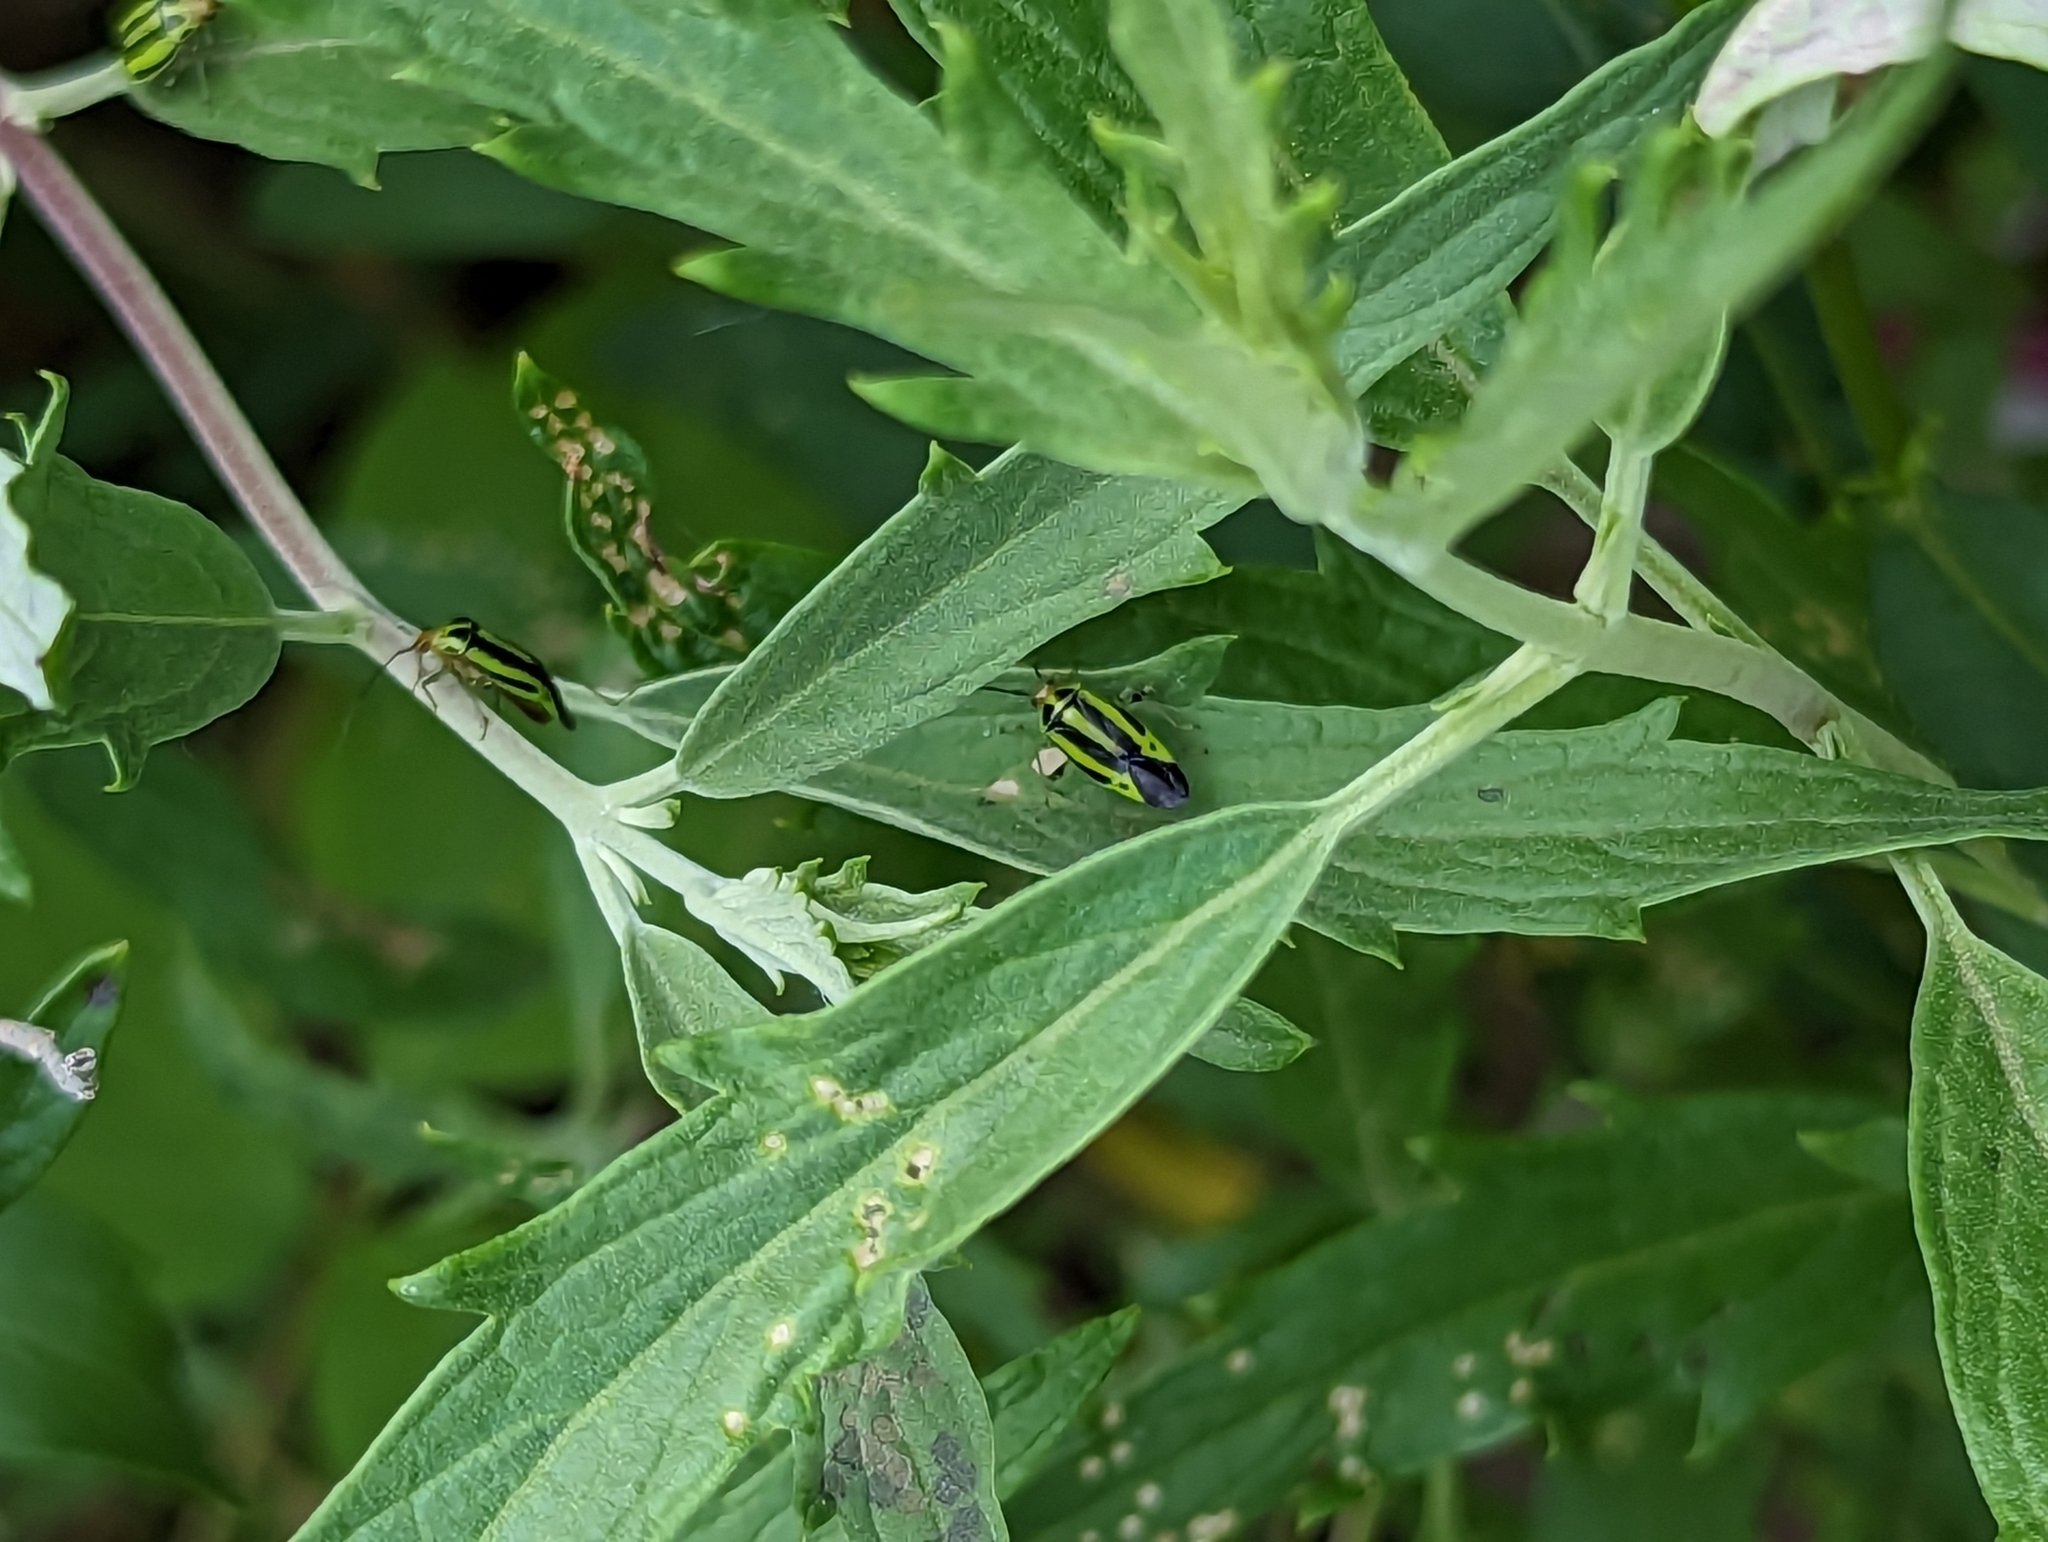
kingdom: Animalia
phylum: Arthropoda
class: Insecta
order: Hemiptera
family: Miridae
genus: Poecilocapsus
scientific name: Poecilocapsus lineatus
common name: Four-lined plant bug
